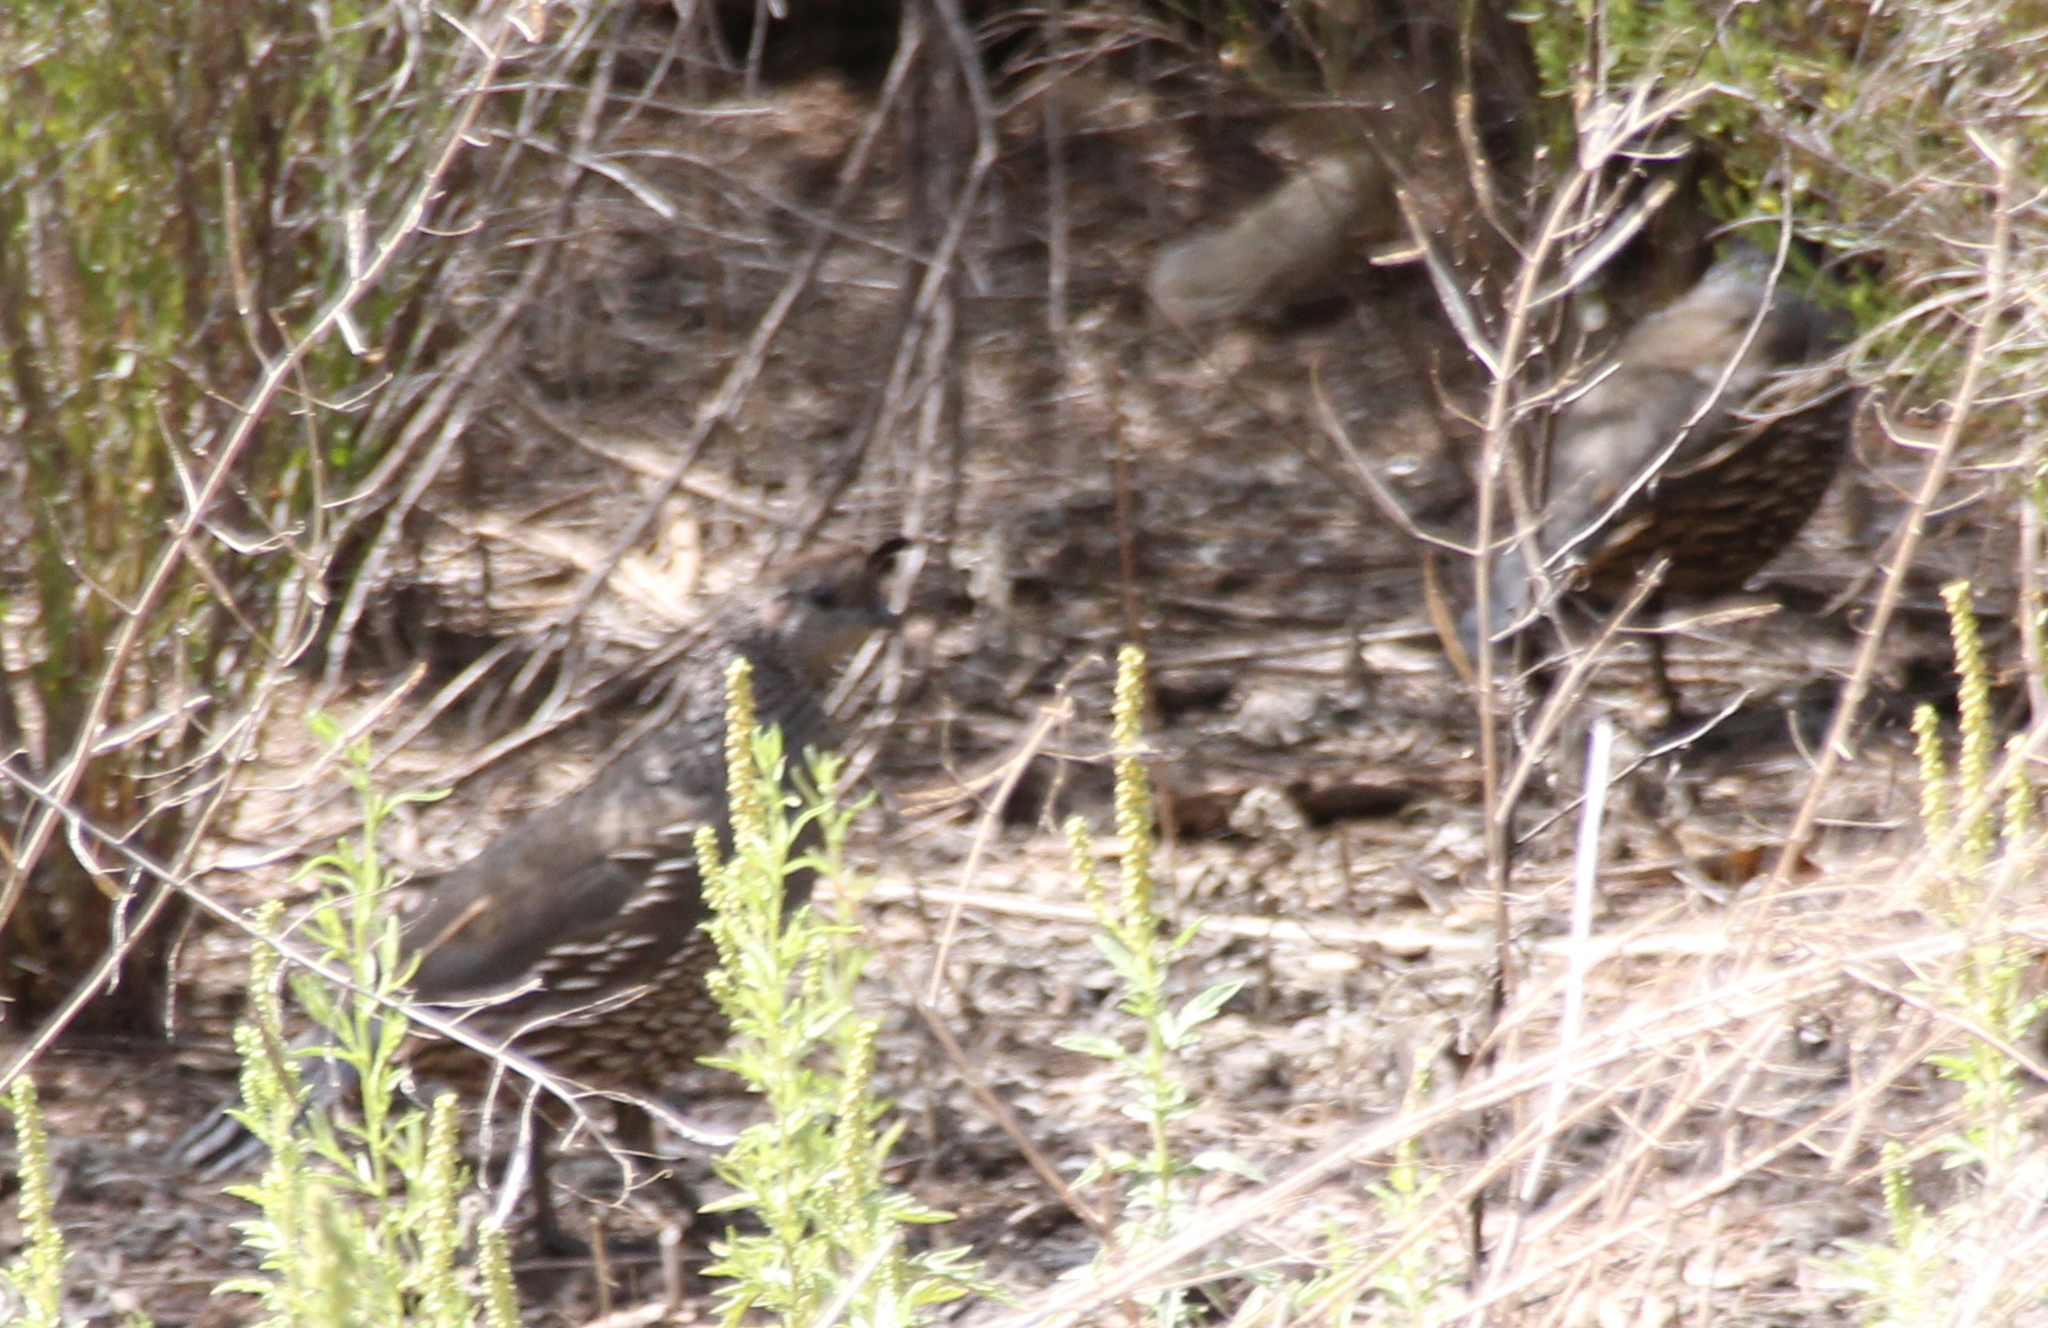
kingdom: Animalia
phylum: Chordata
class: Aves
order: Galliformes
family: Odontophoridae
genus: Callipepla
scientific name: Callipepla californica
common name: California quail
